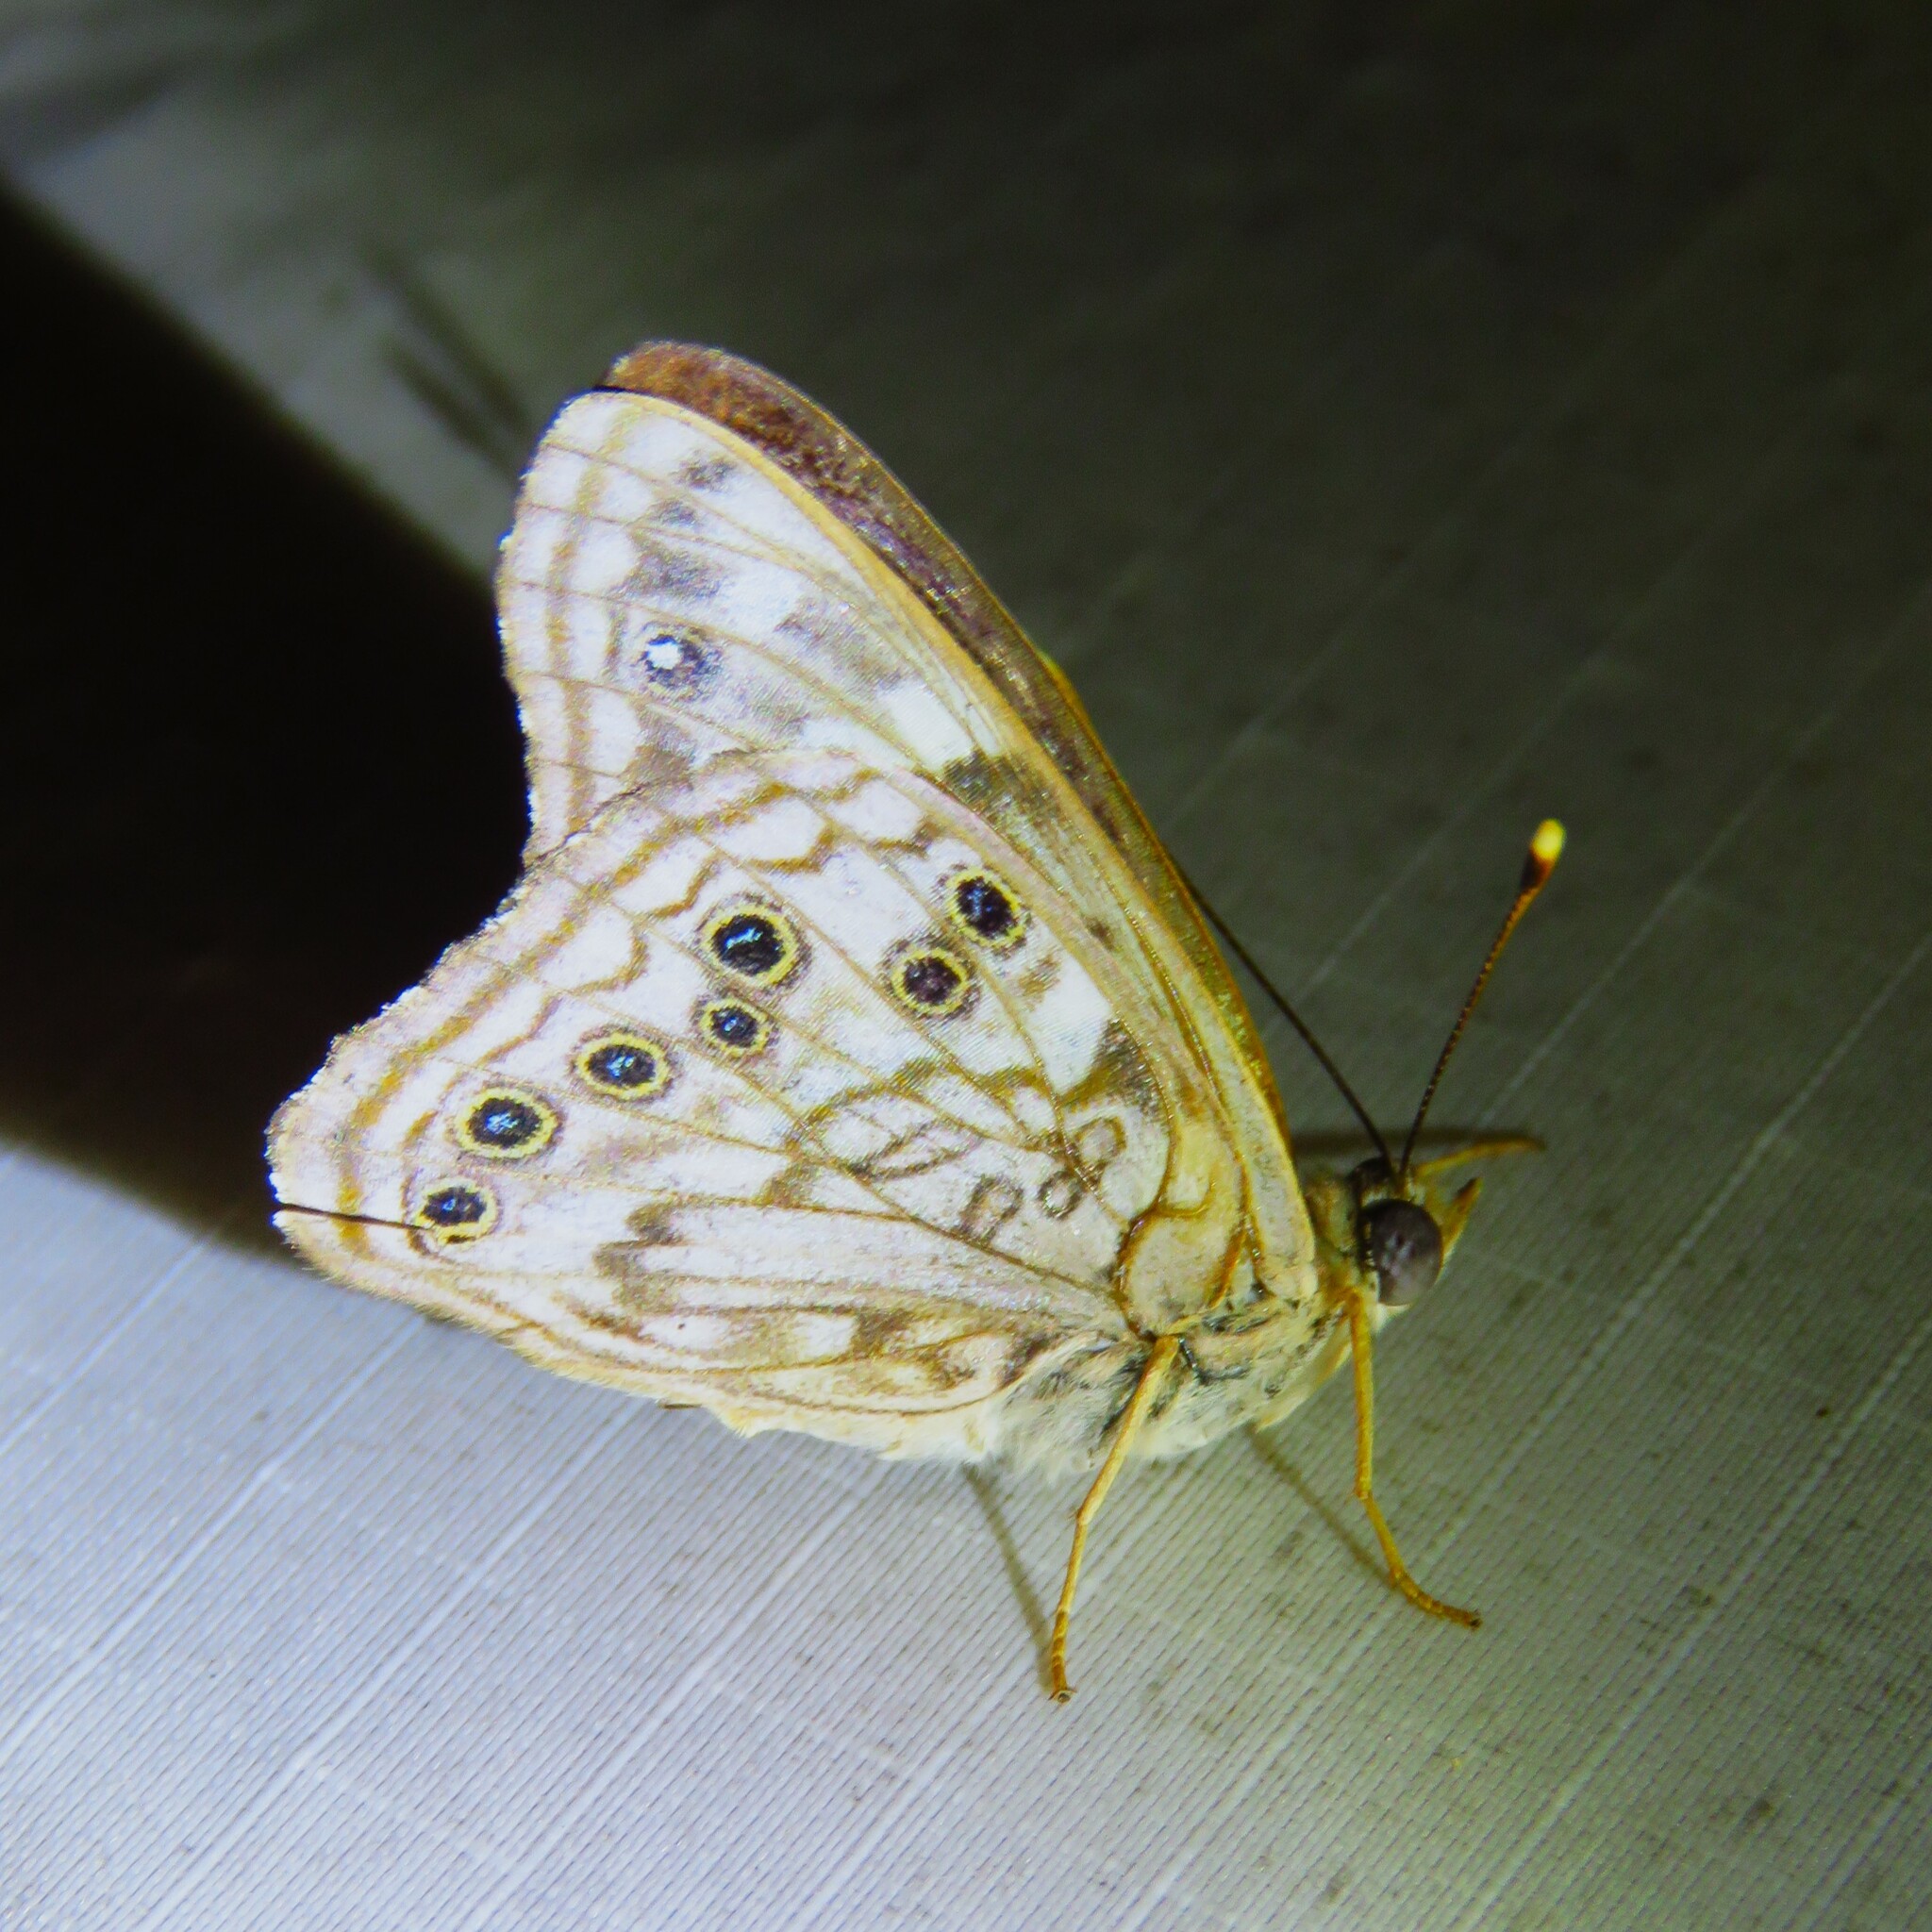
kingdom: Animalia
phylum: Arthropoda
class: Insecta
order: Lepidoptera
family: Nymphalidae
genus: Asterocampa
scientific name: Asterocampa celtis
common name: Hackberry emperor
